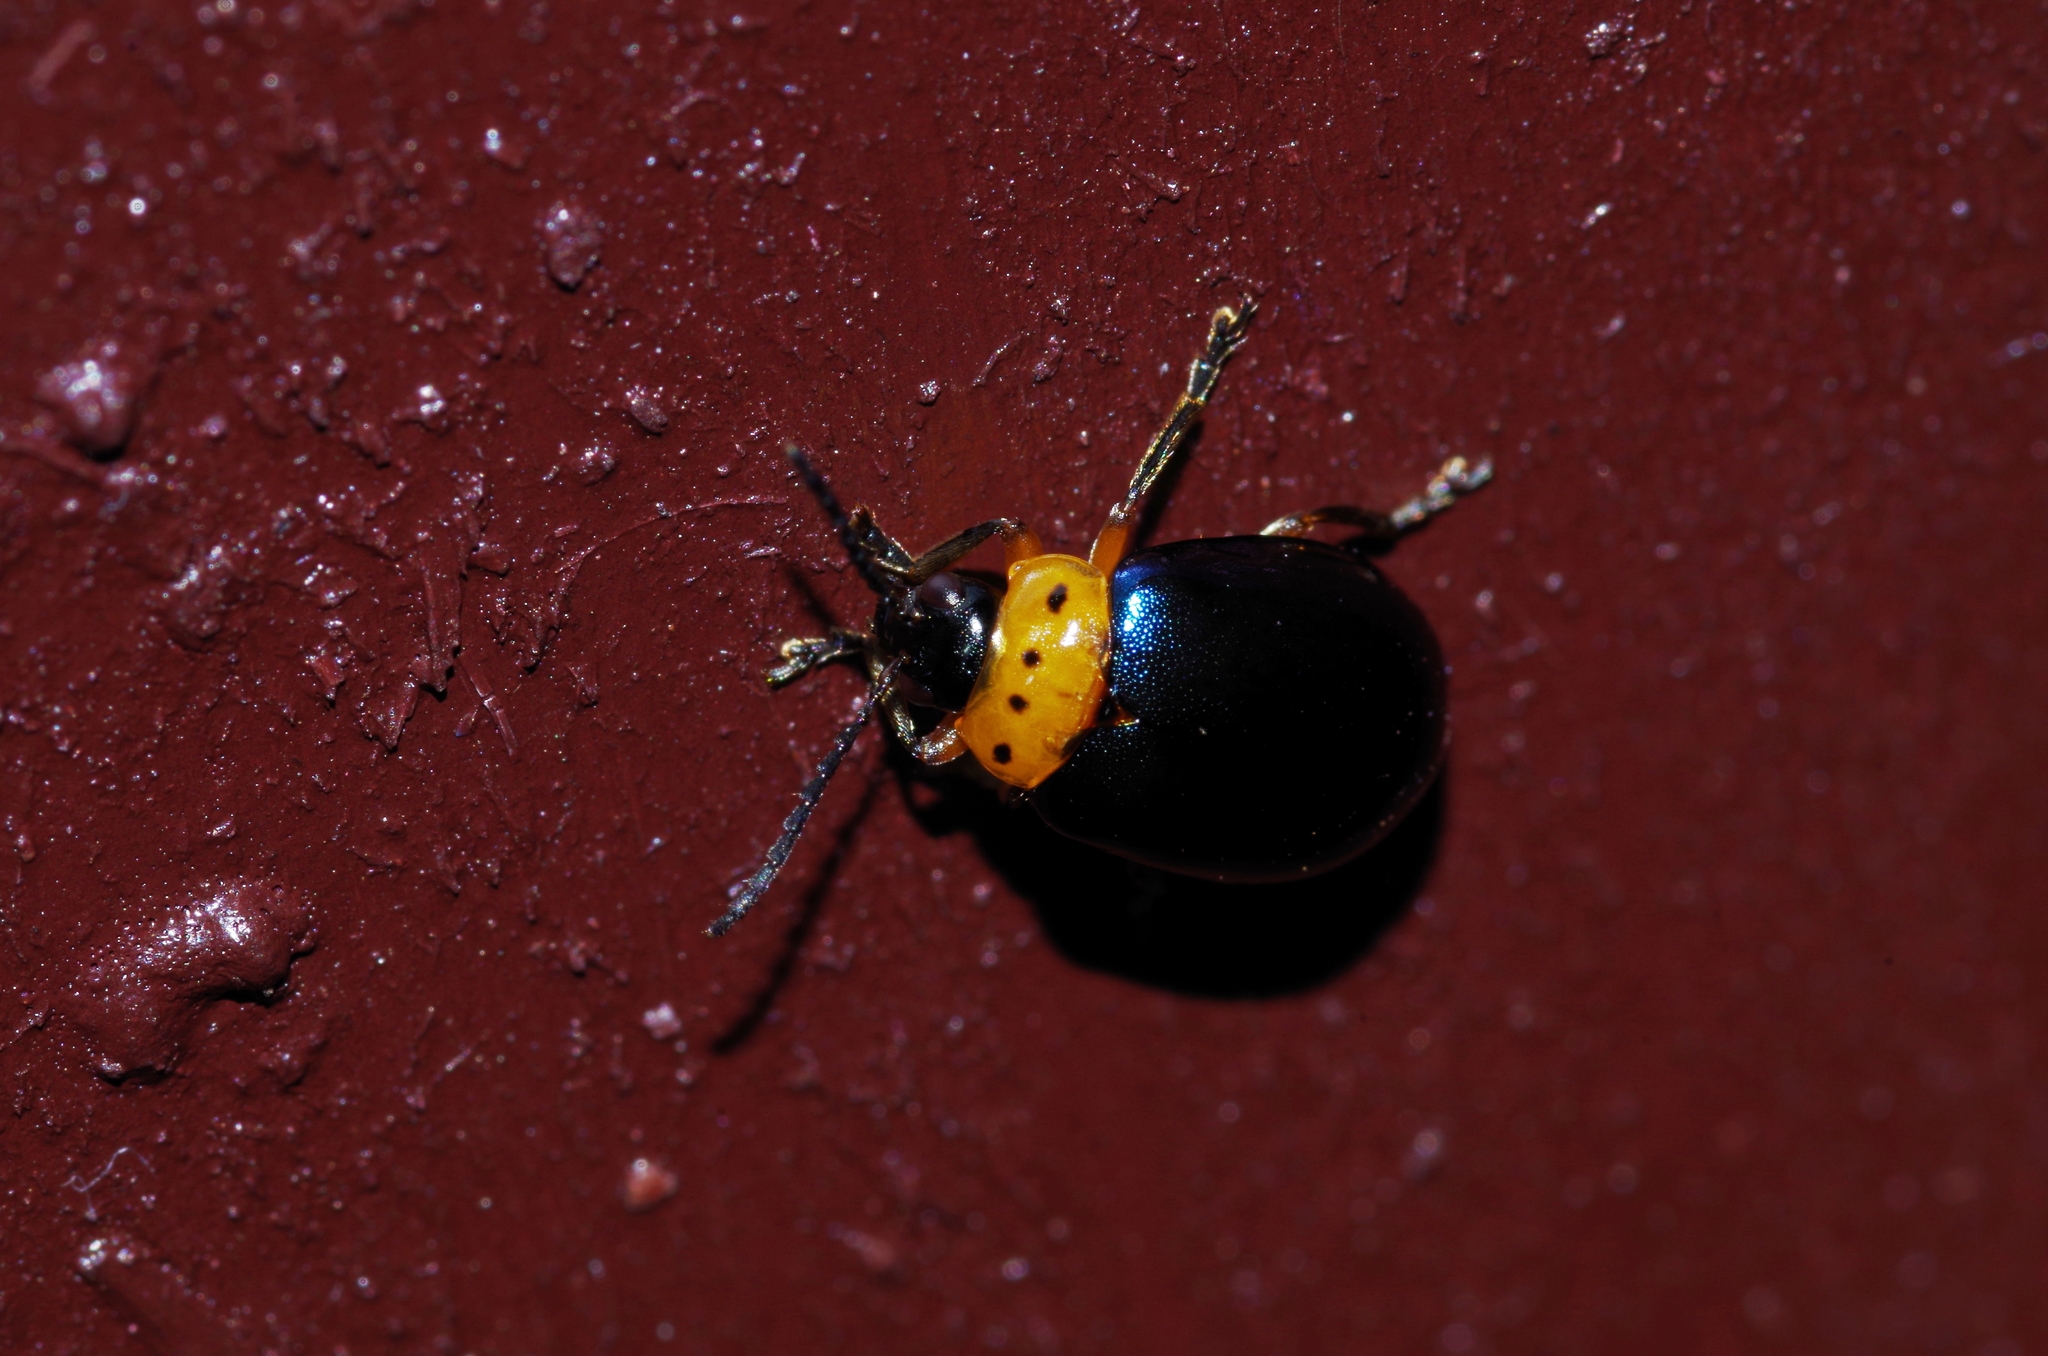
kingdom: Animalia
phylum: Arthropoda
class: Insecta
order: Coleoptera
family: Chrysomelidae
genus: Morphosphaera
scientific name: Morphosphaera caerulea
